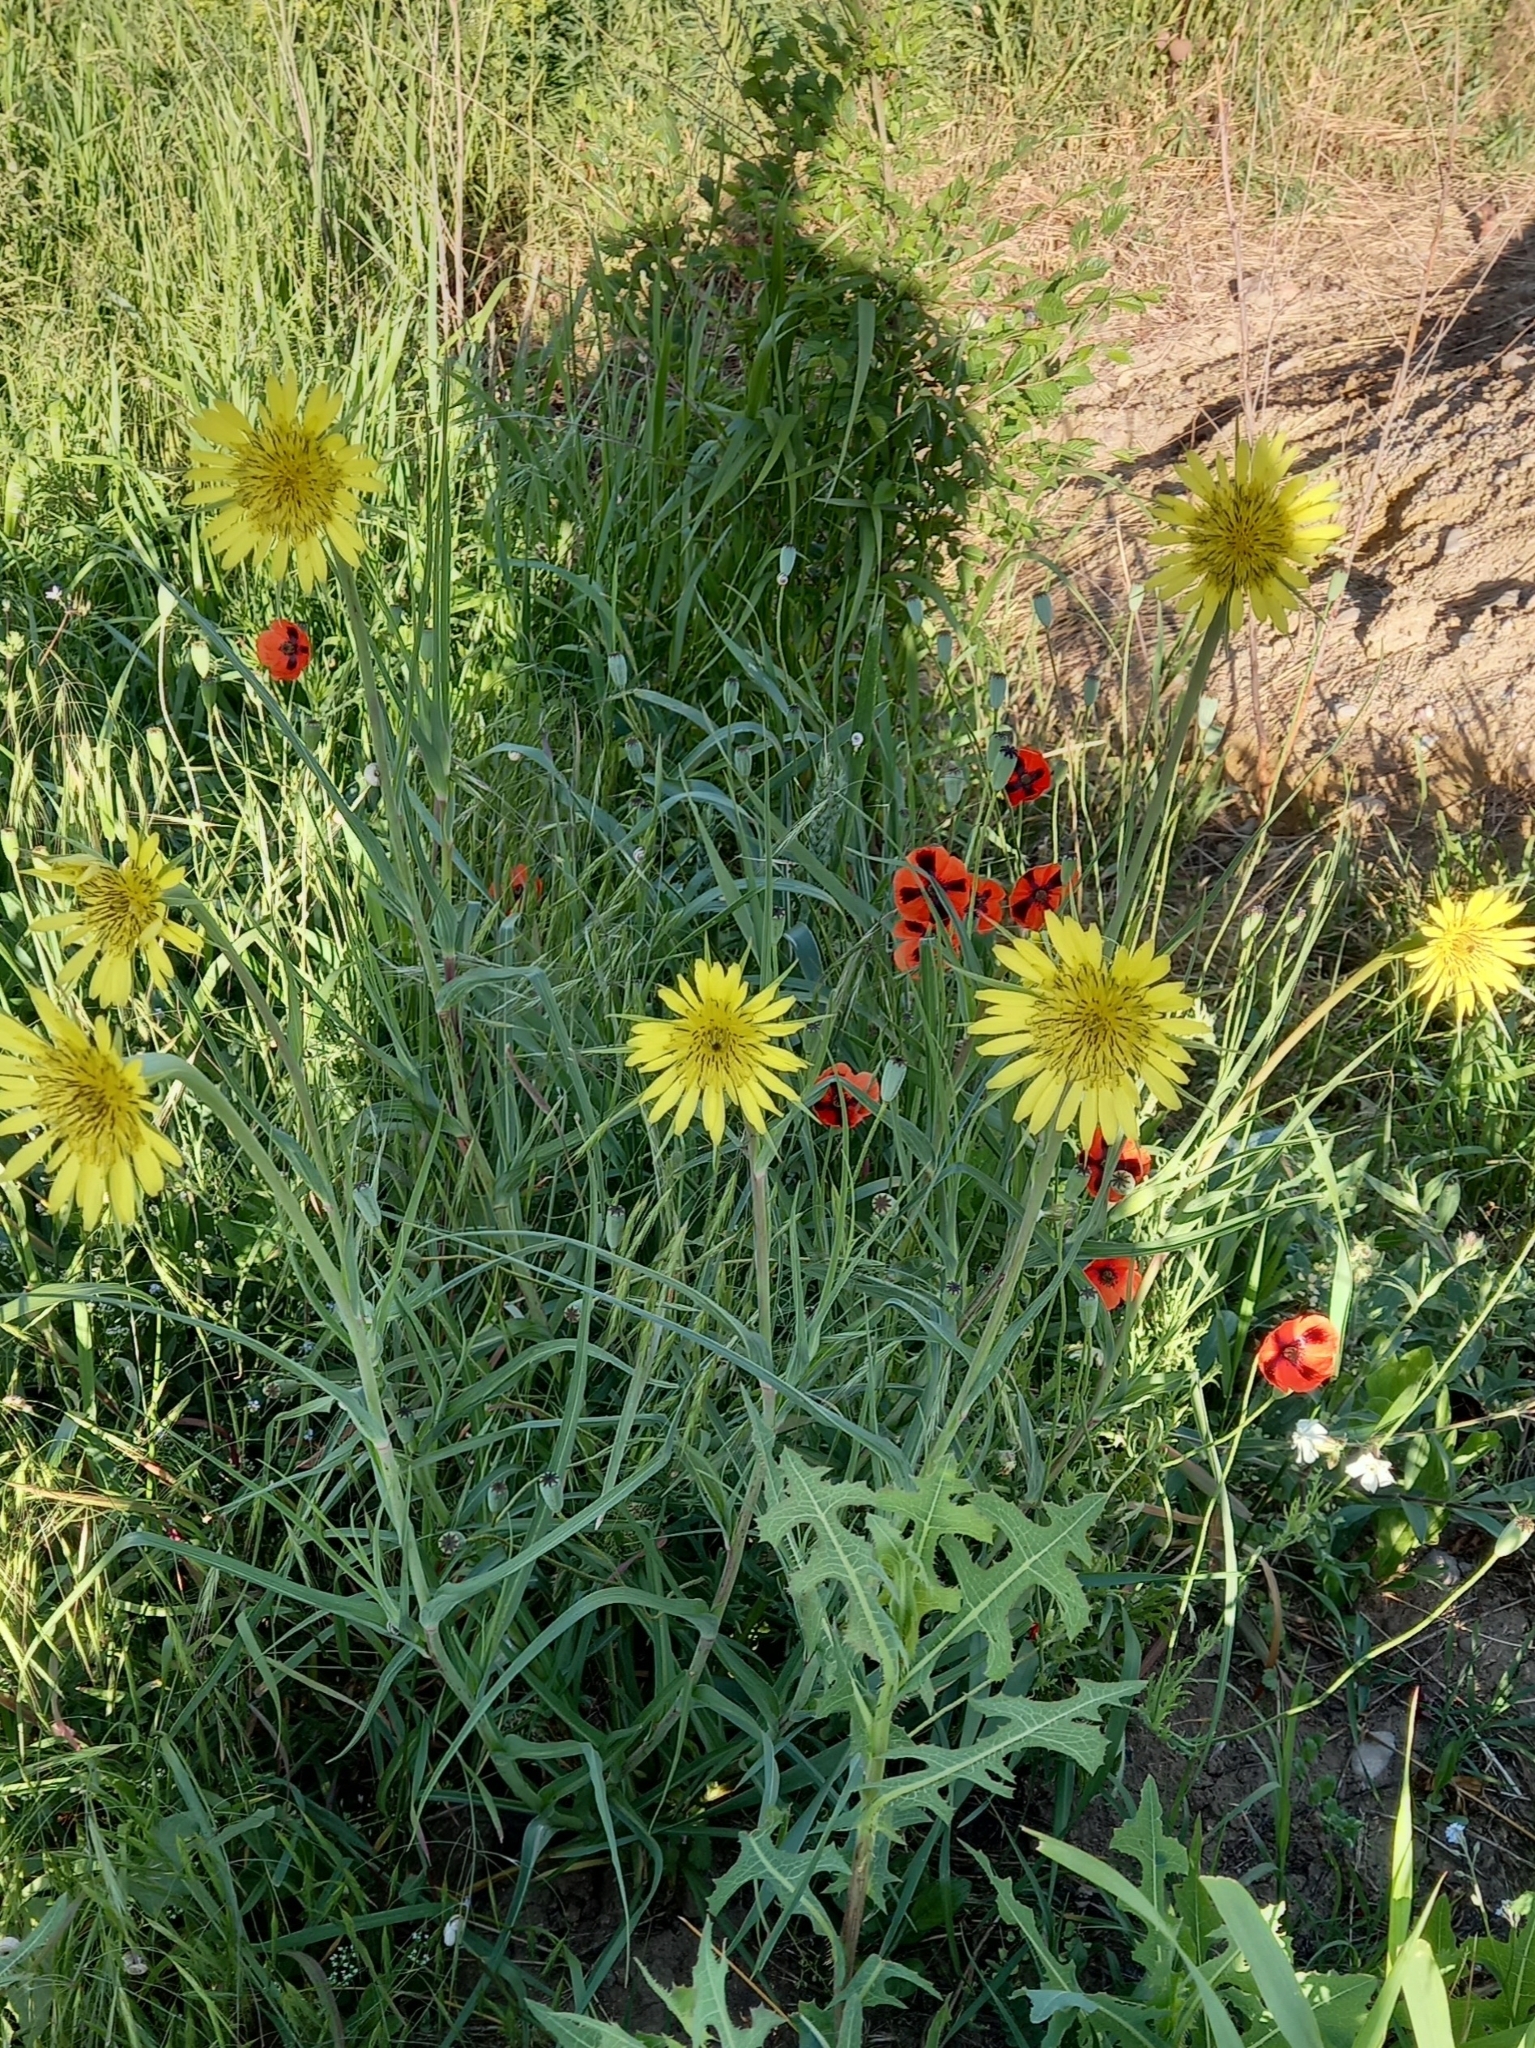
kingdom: Plantae
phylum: Tracheophyta
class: Magnoliopsida
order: Asterales
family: Asteraceae
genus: Tragopogon
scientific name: Tragopogon dubius
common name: Yellow salsify
